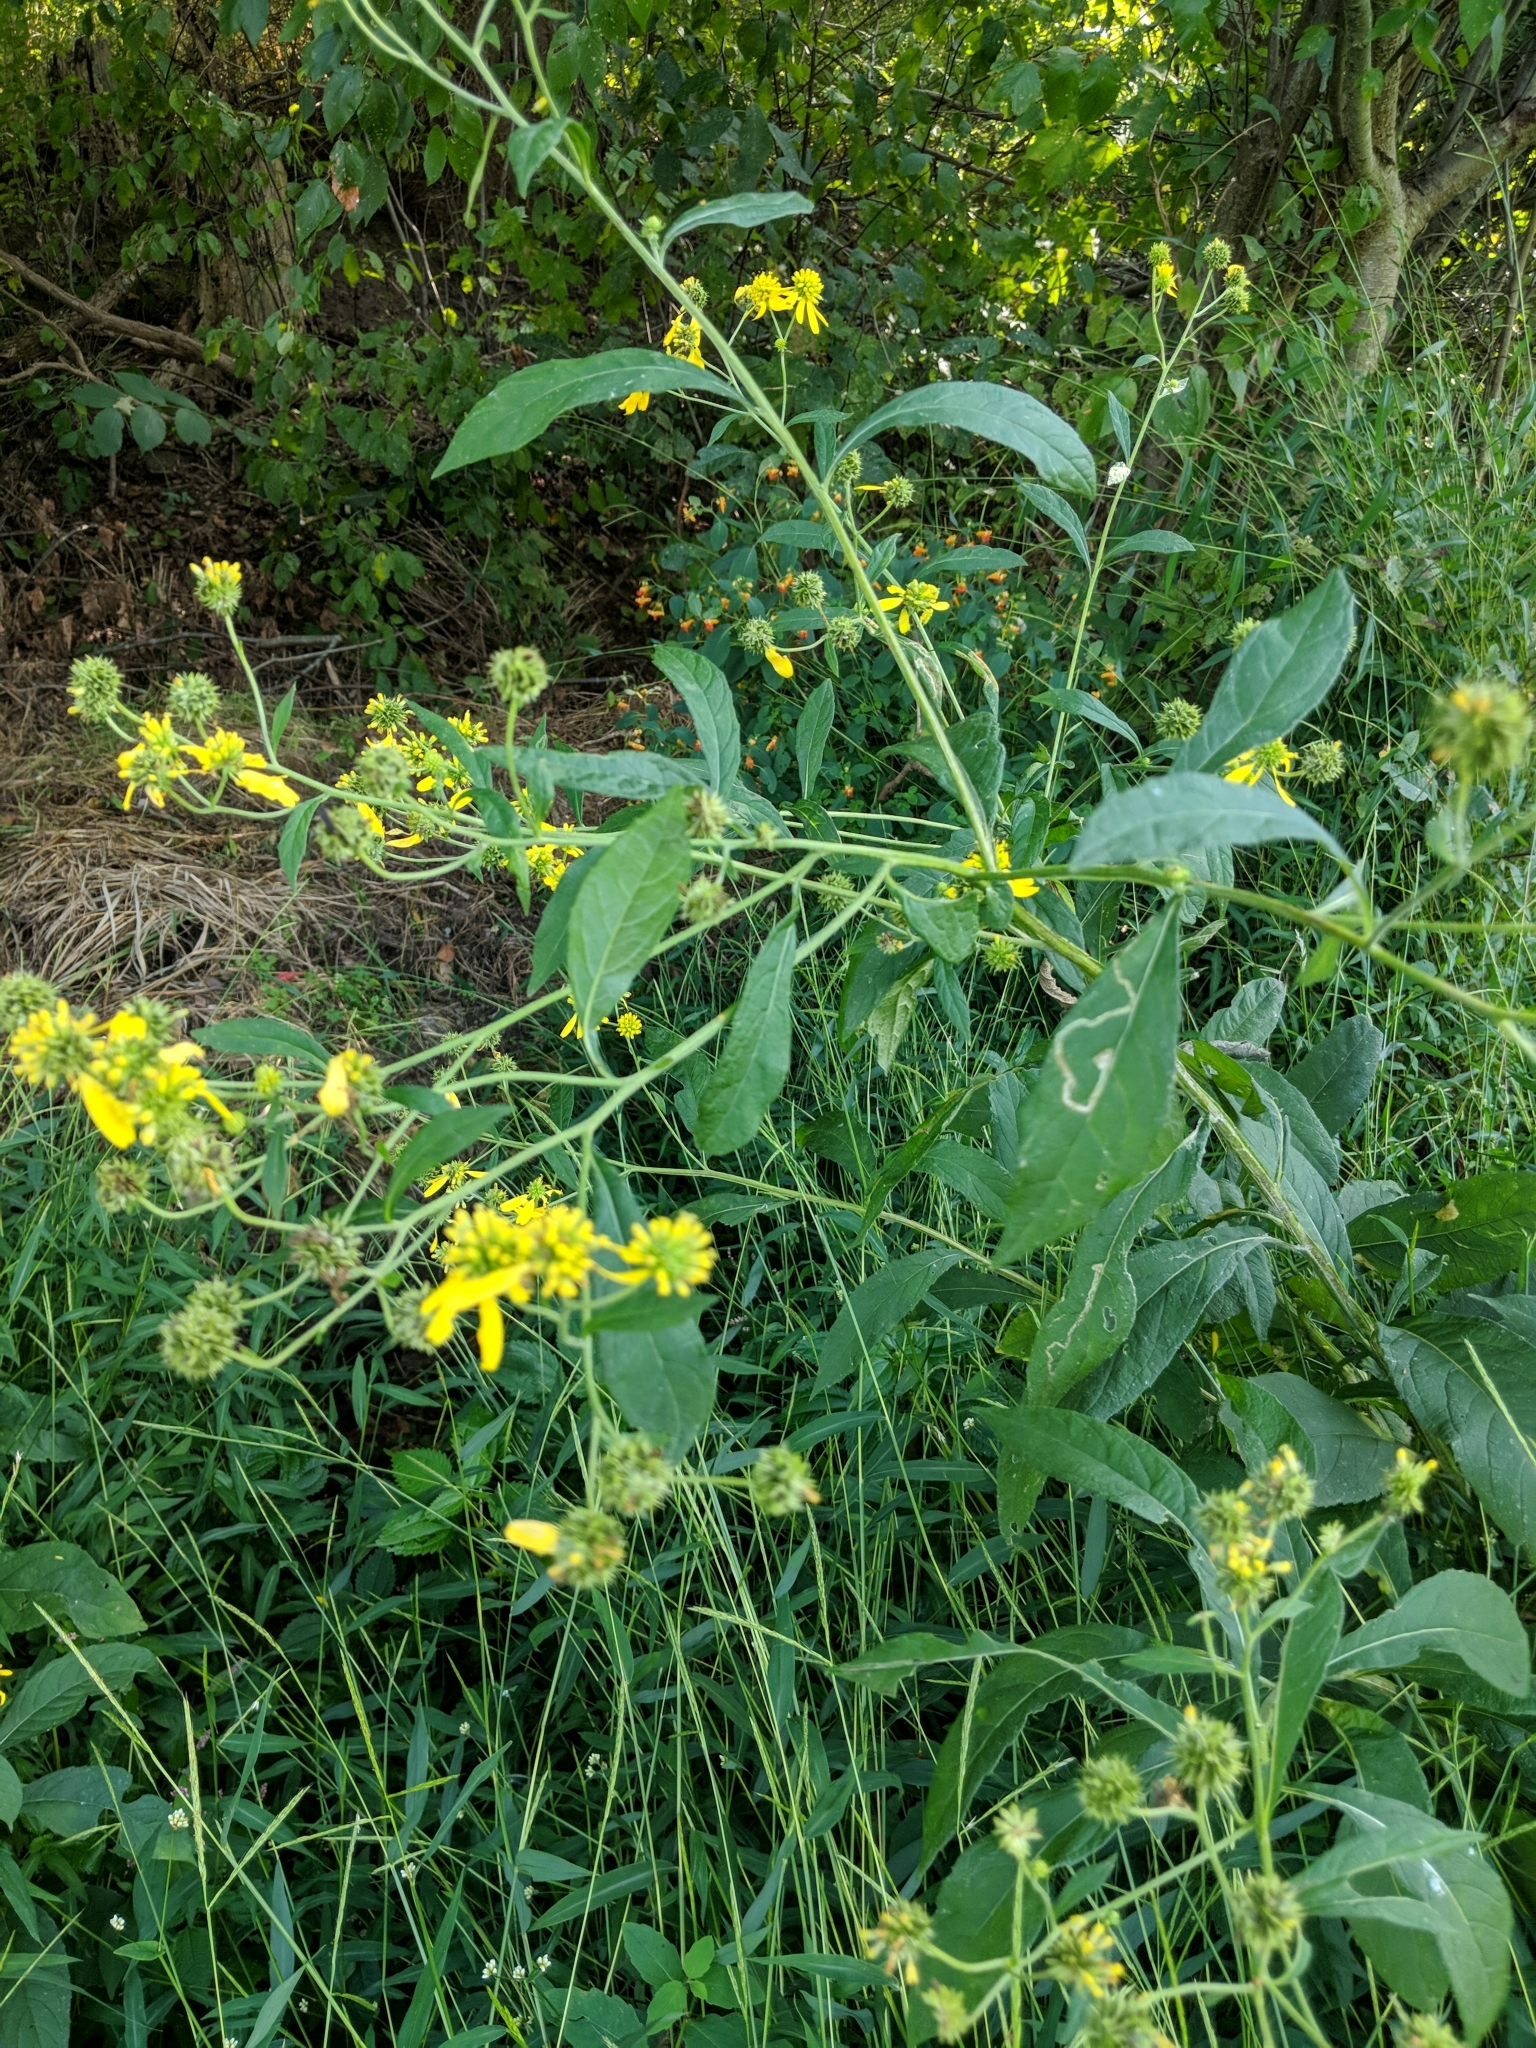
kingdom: Plantae
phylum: Tracheophyta
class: Magnoliopsida
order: Asterales
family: Asteraceae
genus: Verbesina
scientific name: Verbesina alternifolia
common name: Wingstem
